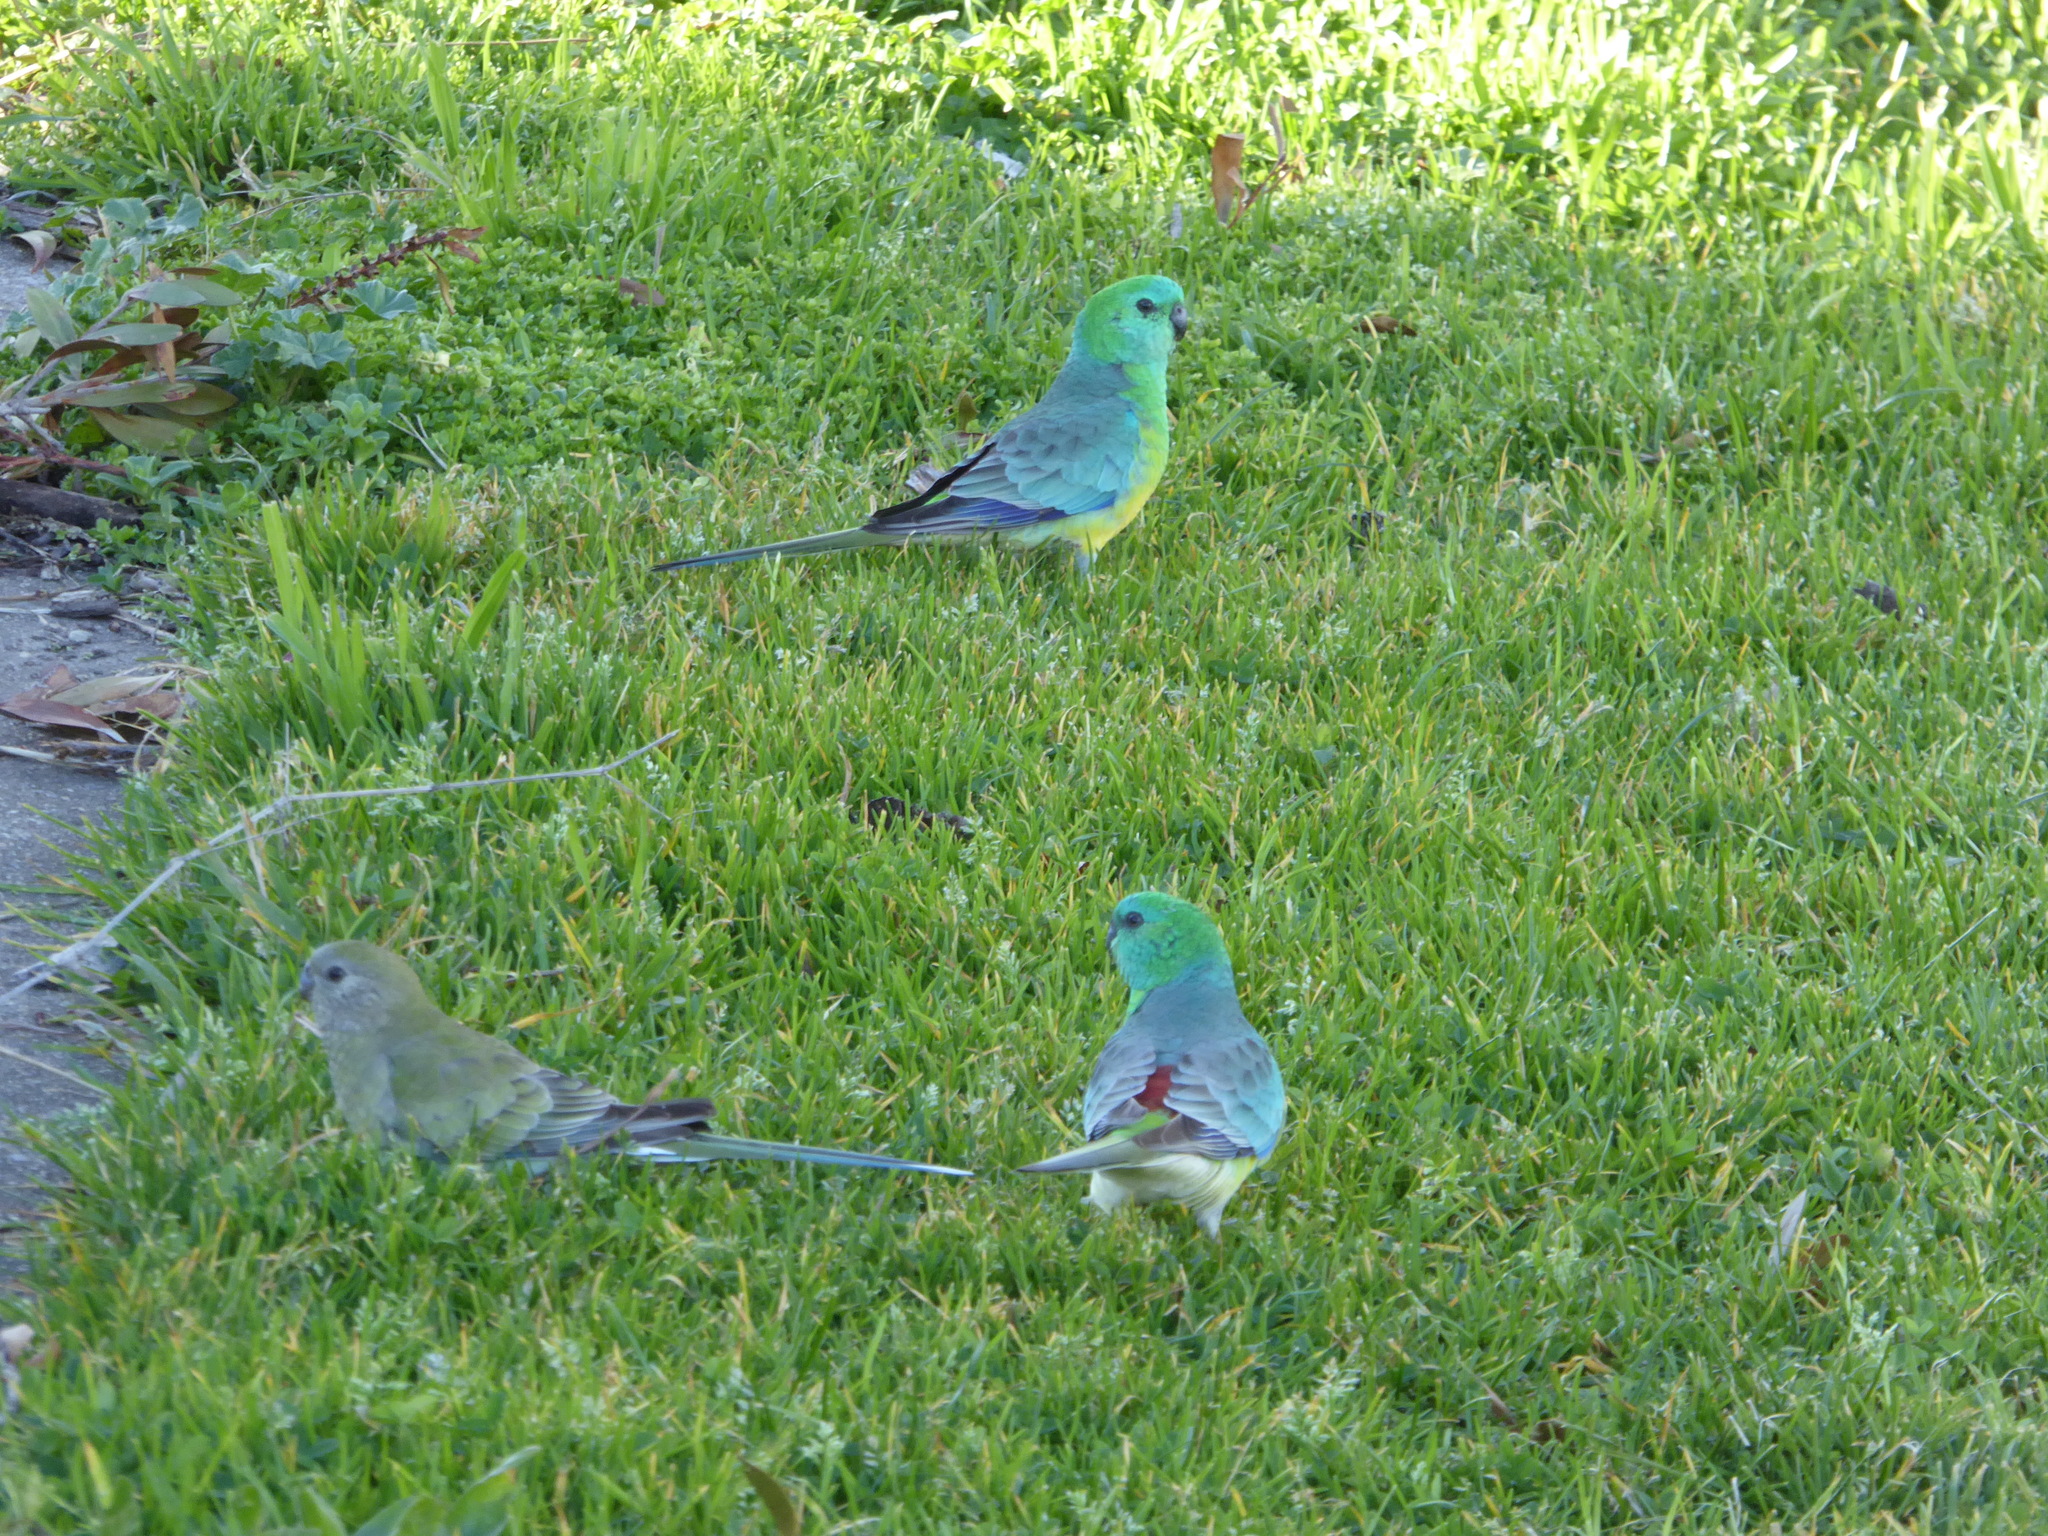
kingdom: Animalia
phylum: Chordata
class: Aves
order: Psittaciformes
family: Psittacidae
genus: Psephotus
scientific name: Psephotus haematonotus
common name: Red-rumped parrot
